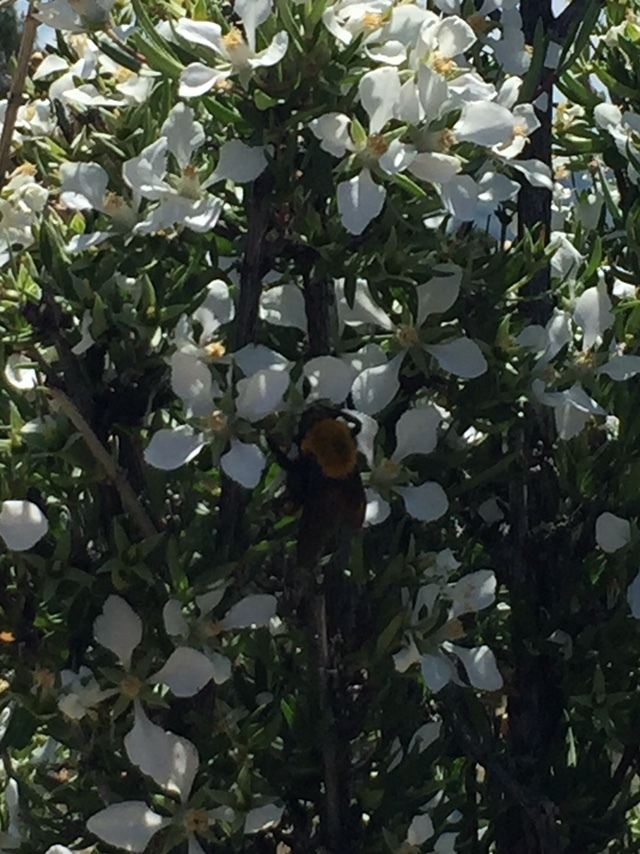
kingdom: Animalia
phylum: Arthropoda
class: Insecta
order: Hymenoptera
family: Apidae
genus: Bombus
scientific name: Bombus morrisoni
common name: Morrison bumble bee
